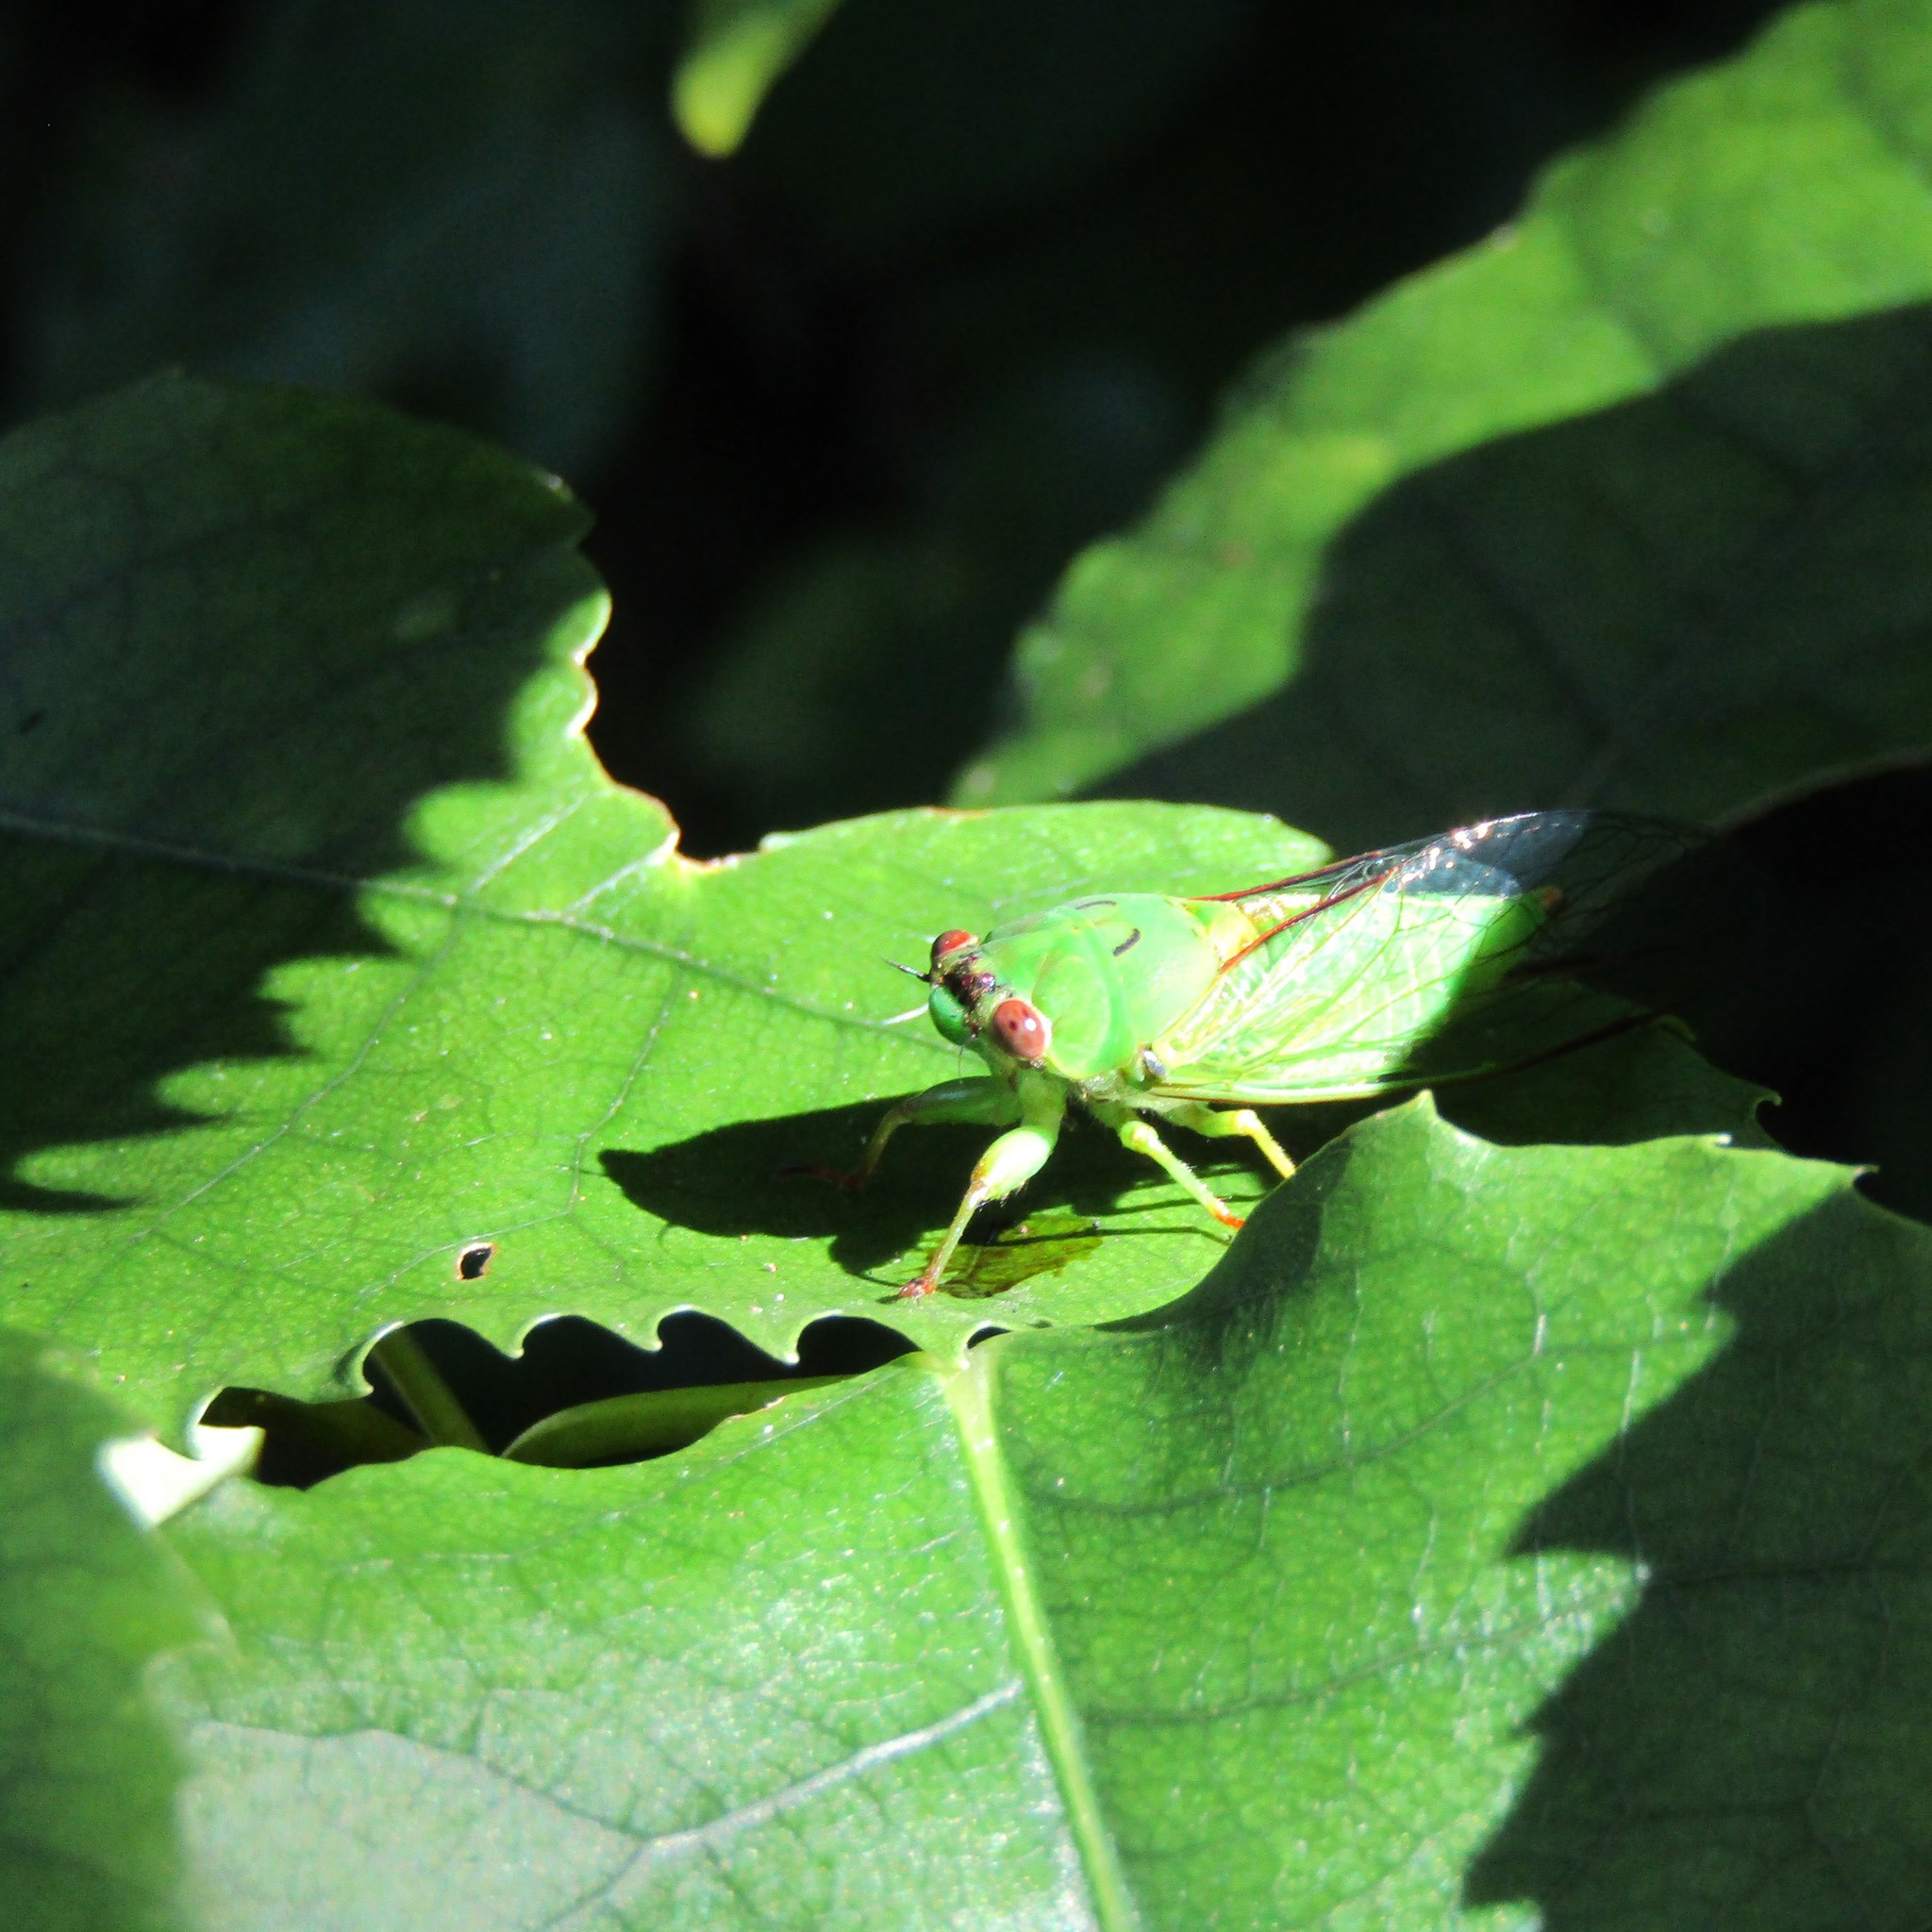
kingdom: Plantae
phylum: Tracheophyta
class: Magnoliopsida
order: Malvales
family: Malvaceae
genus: Hoheria
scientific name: Hoheria populnea
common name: Lacebark
